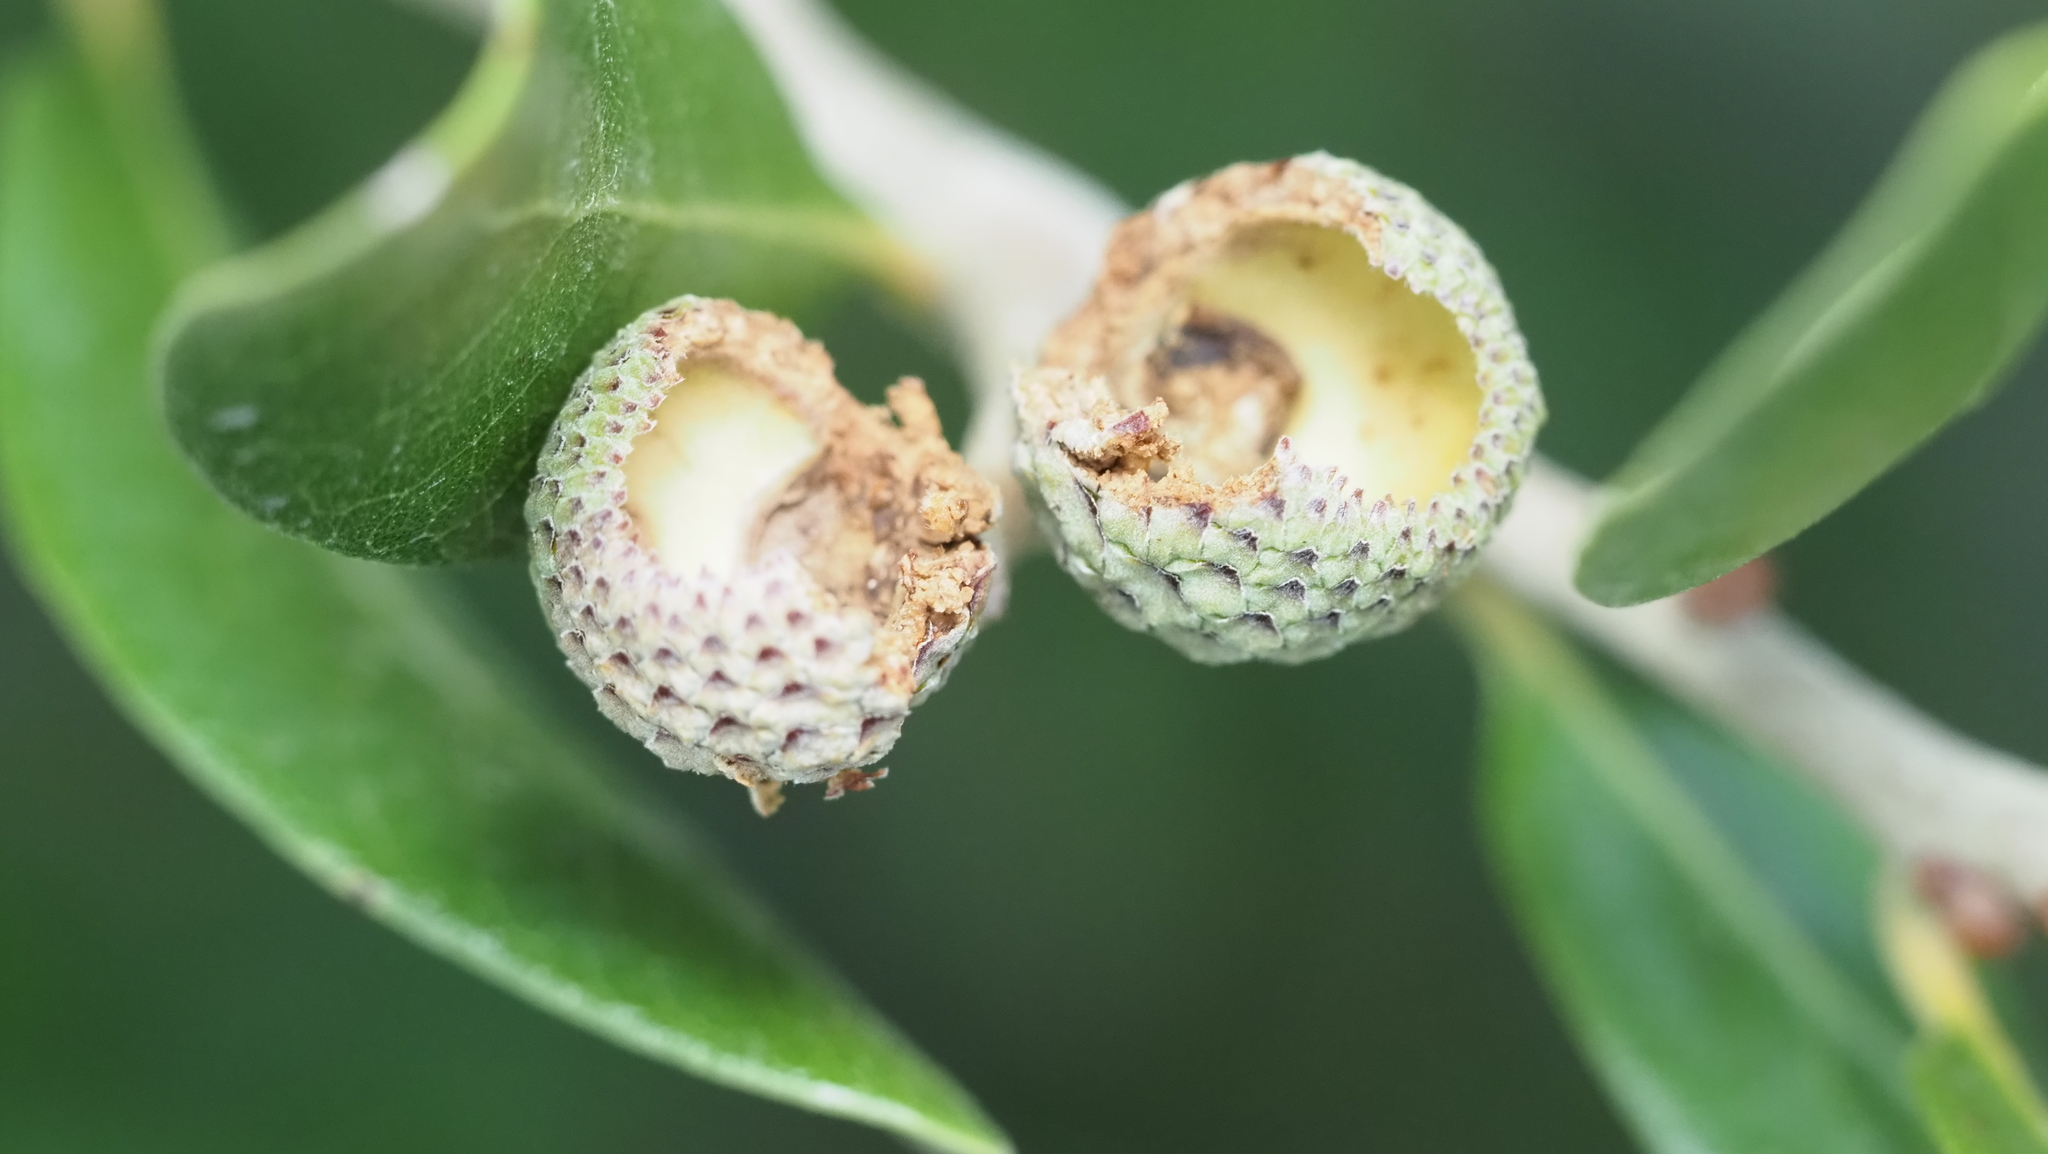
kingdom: Animalia
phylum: Chordata
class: Mammalia
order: Rodentia
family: Sciuridae
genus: Sciurus
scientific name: Sciurus niger
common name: Fox squirrel
